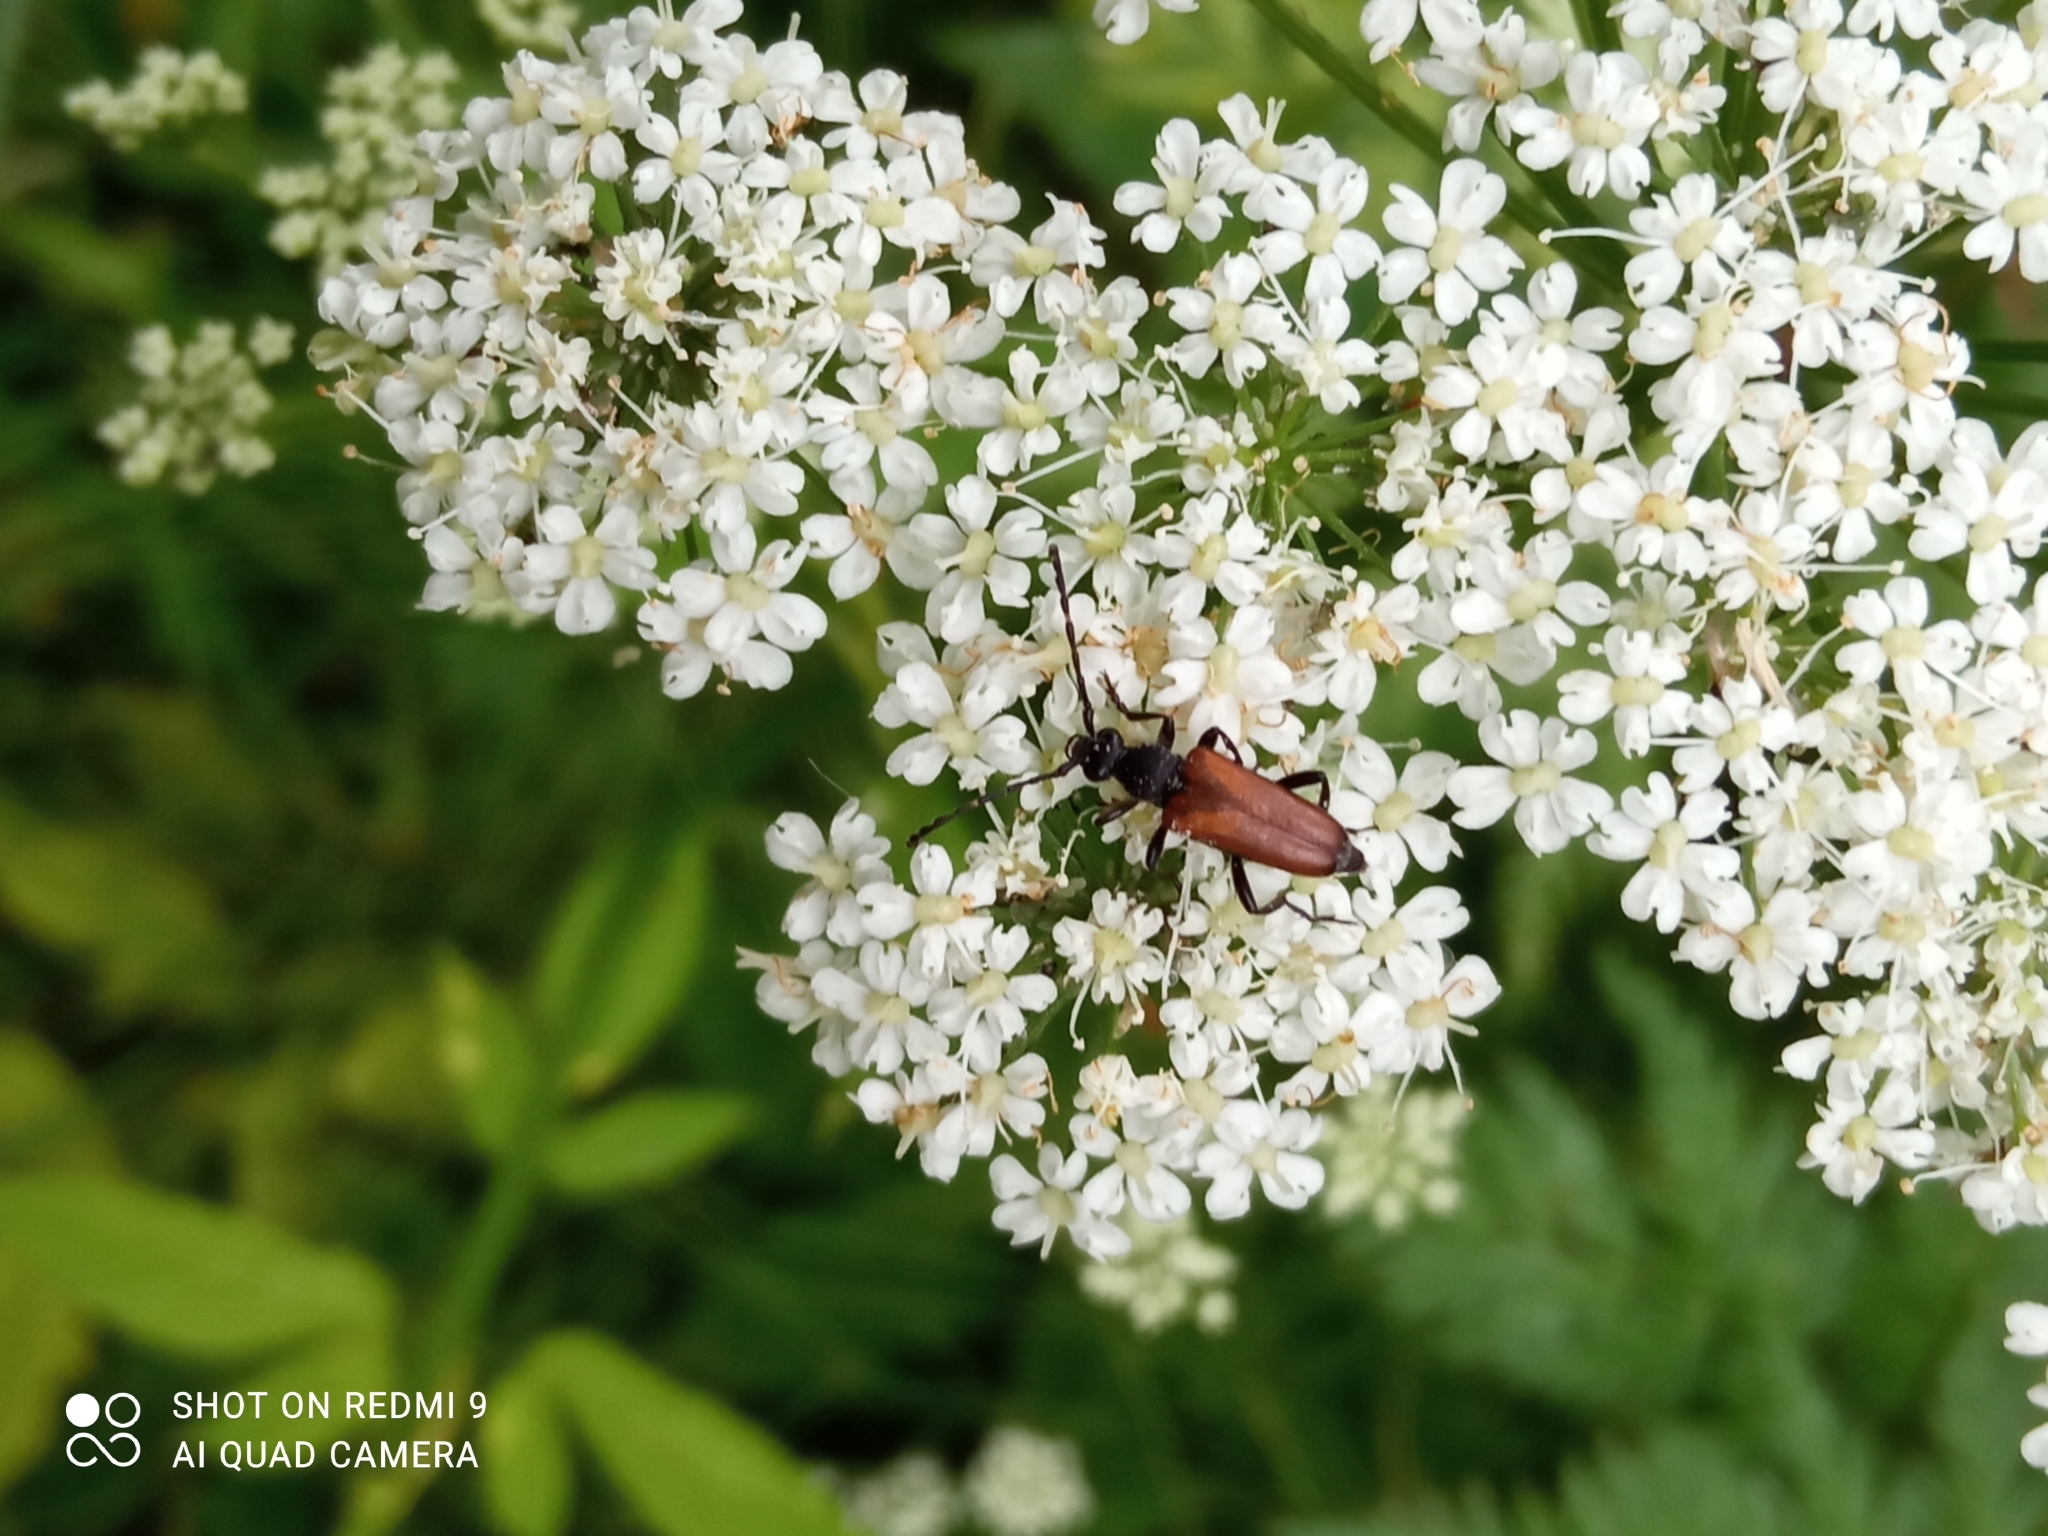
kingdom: Animalia
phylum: Arthropoda
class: Insecta
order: Coleoptera
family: Cerambycidae
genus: Paracorymbia
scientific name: Paracorymbia maculicornis
